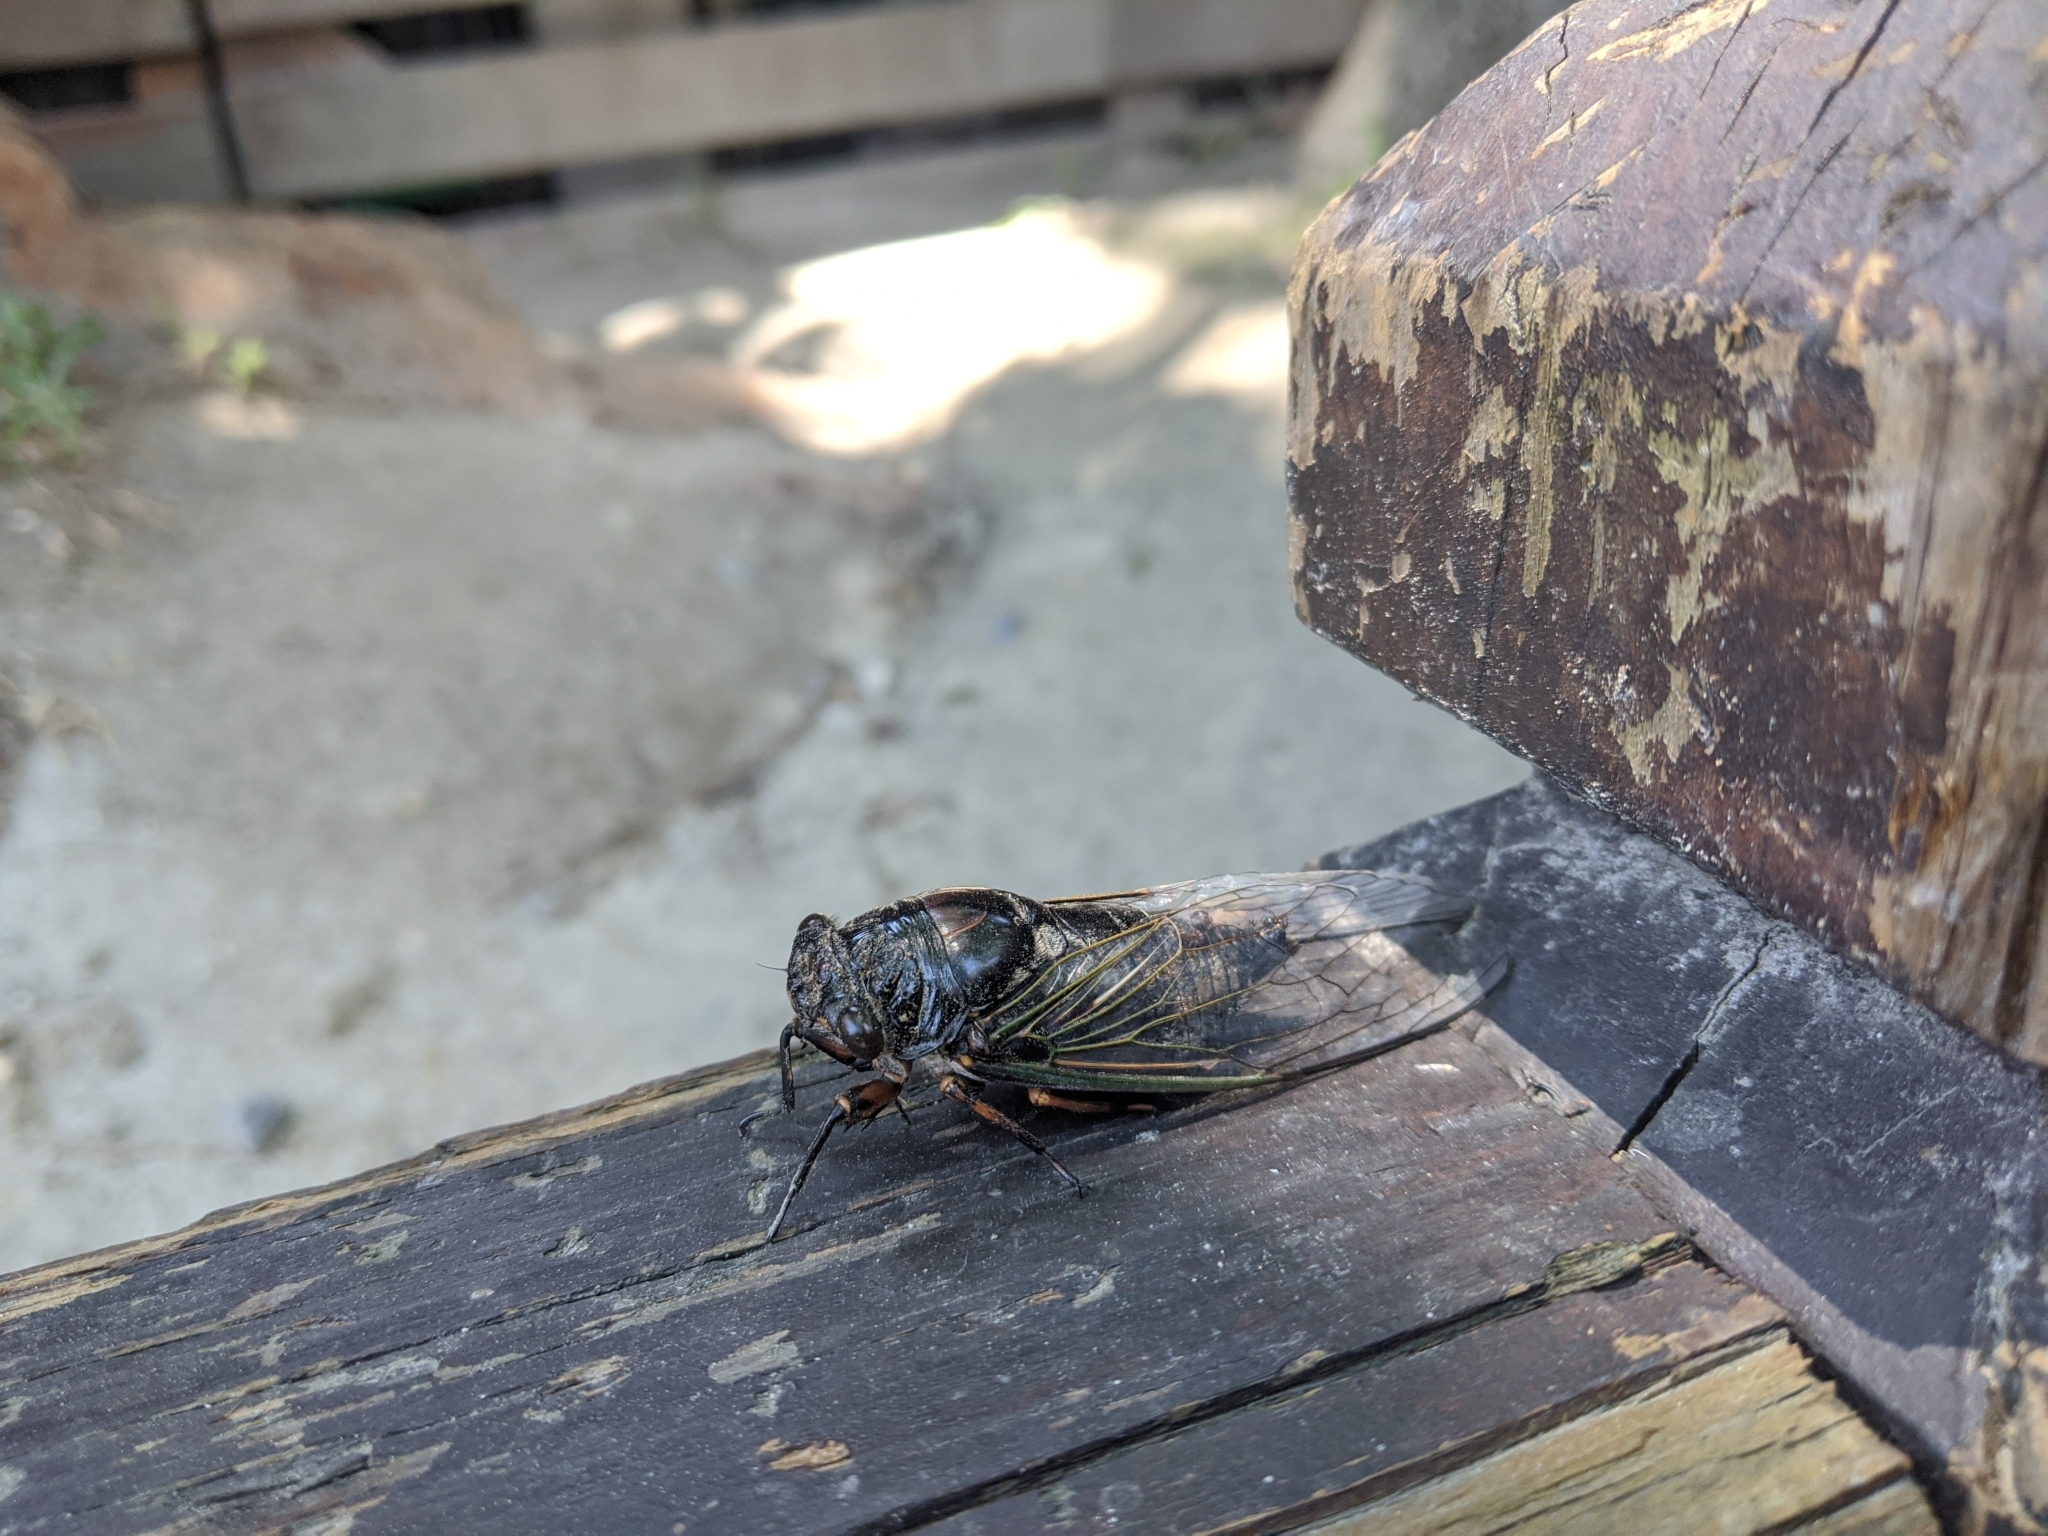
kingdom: Animalia
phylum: Arthropoda
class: Insecta
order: Hemiptera
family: Cicadidae
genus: Cryptotympana
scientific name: Cryptotympana takasagona
